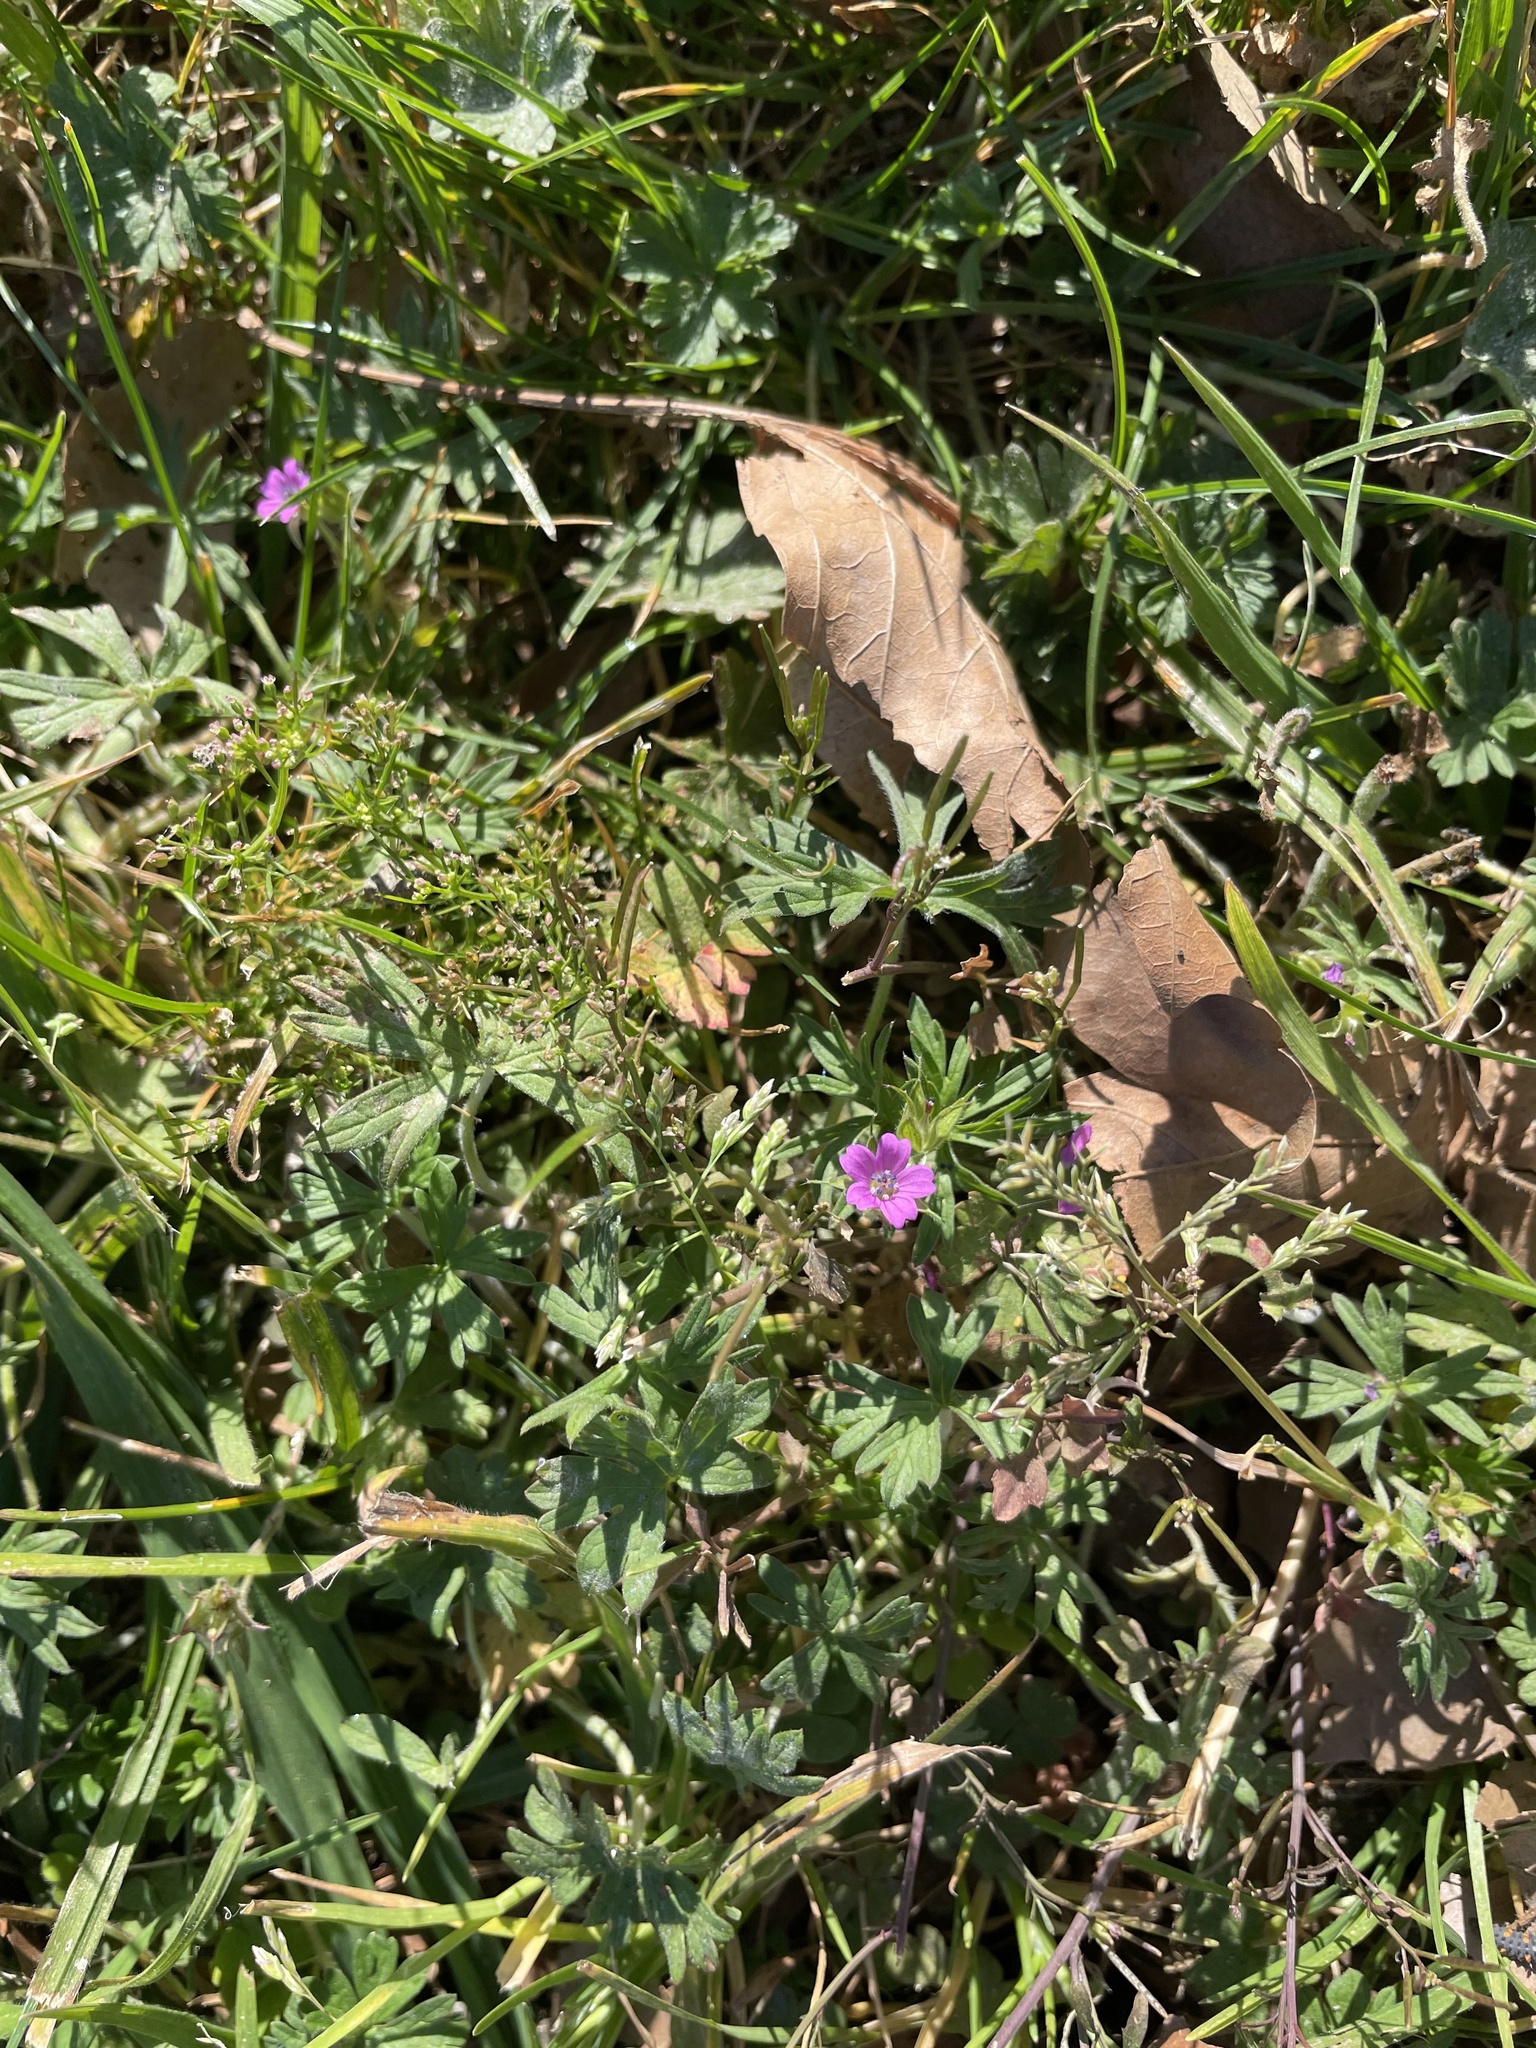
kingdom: Plantae
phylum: Tracheophyta
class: Magnoliopsida
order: Geraniales
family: Geraniaceae
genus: Geranium
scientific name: Geranium dissectum
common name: Cut-leaved crane's-bill
